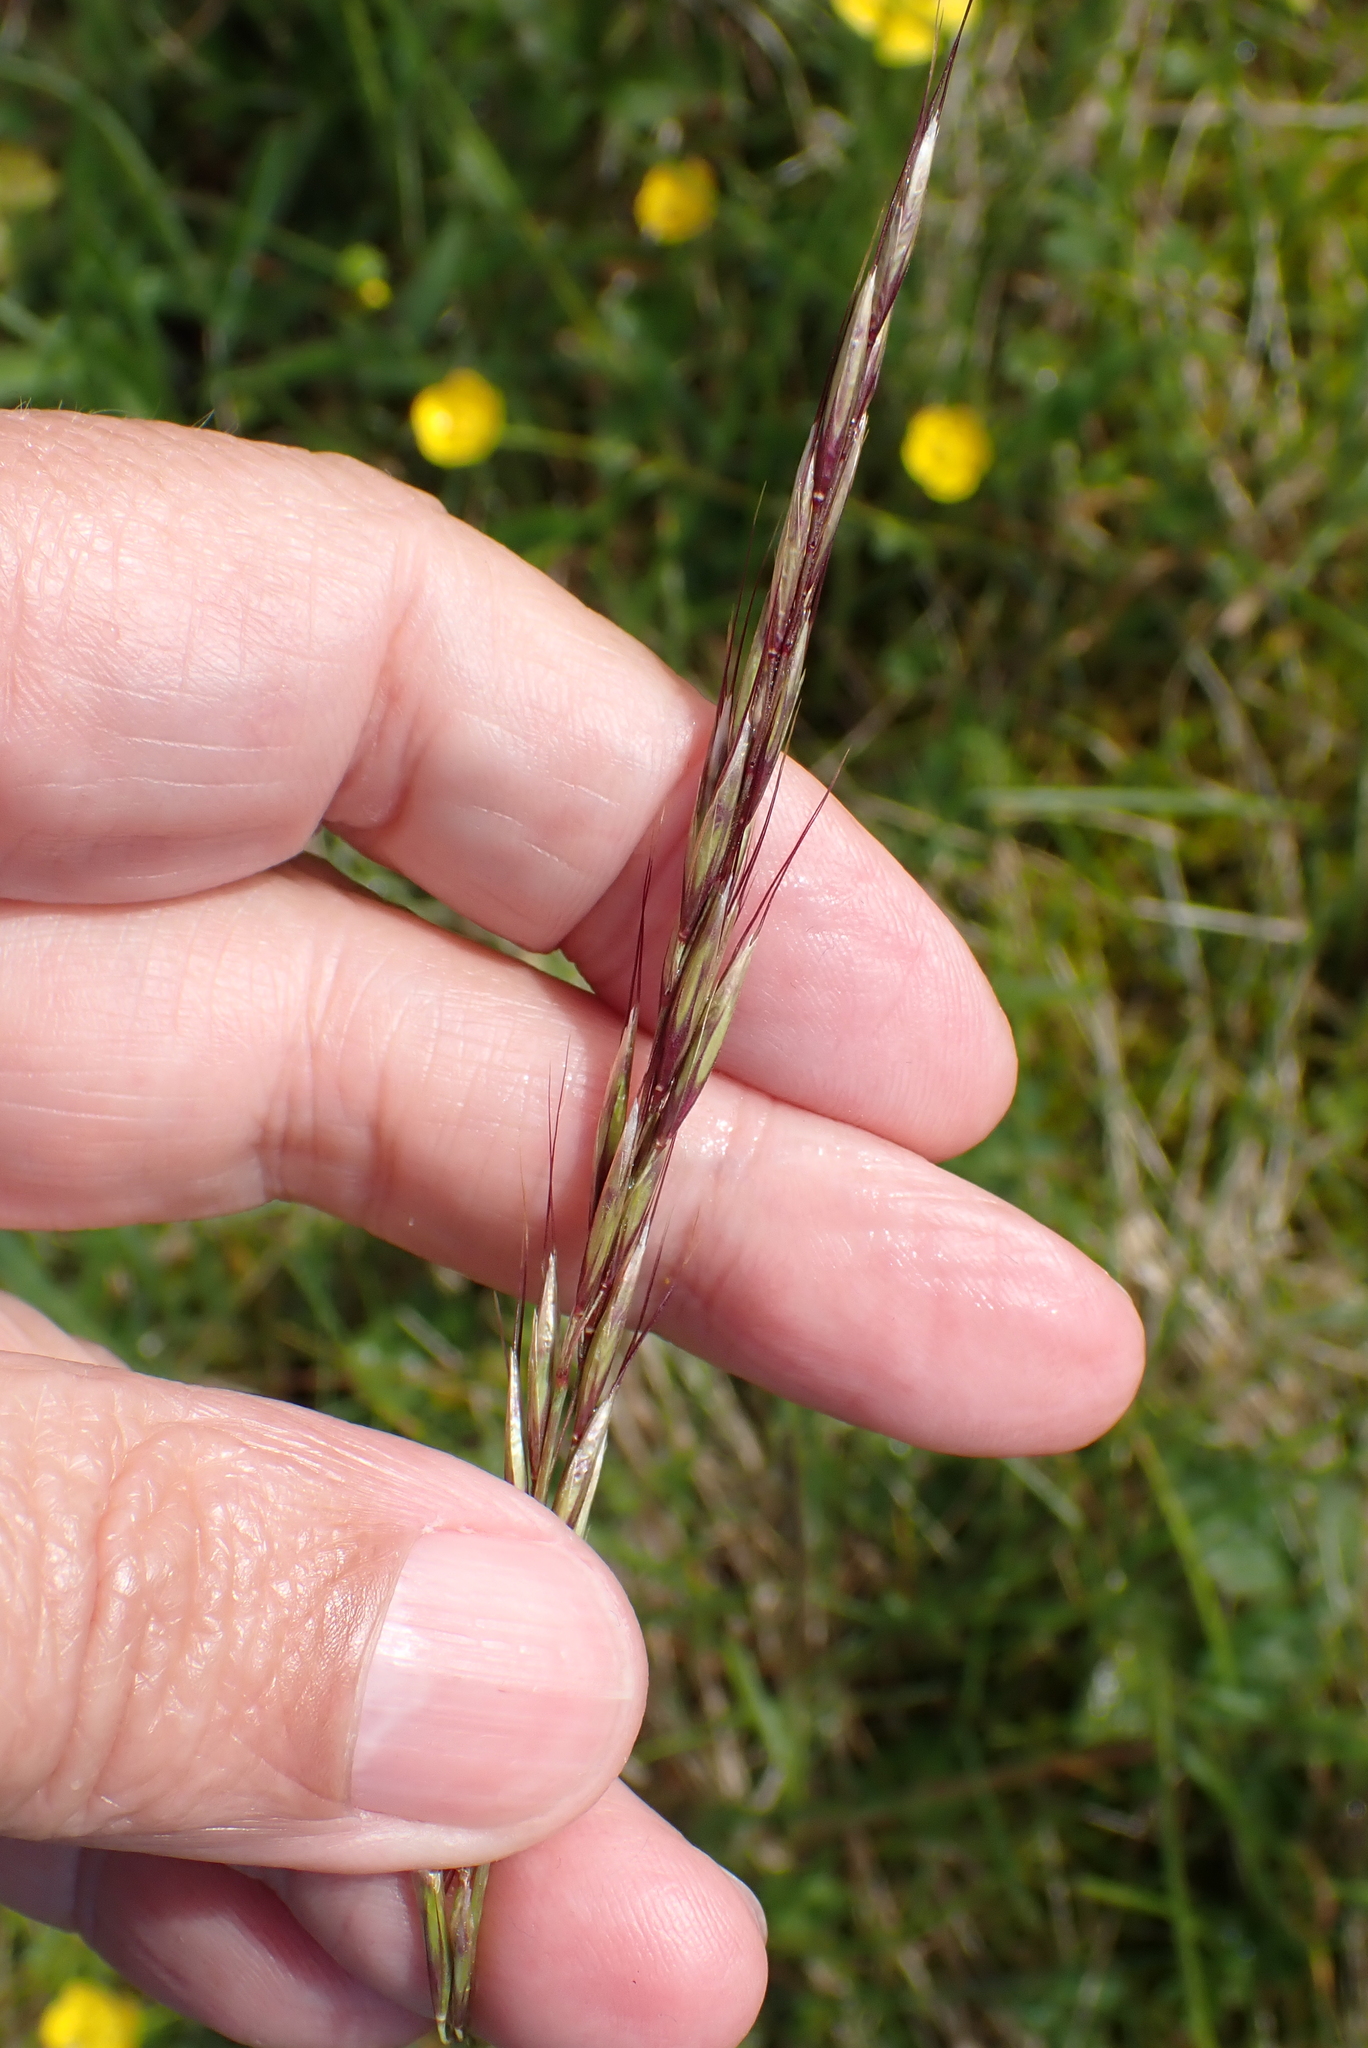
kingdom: Plantae
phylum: Tracheophyta
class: Liliopsida
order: Poales
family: Poaceae
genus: Arrhenatherum
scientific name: Arrhenatherum elatius
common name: Tall oatgrass
